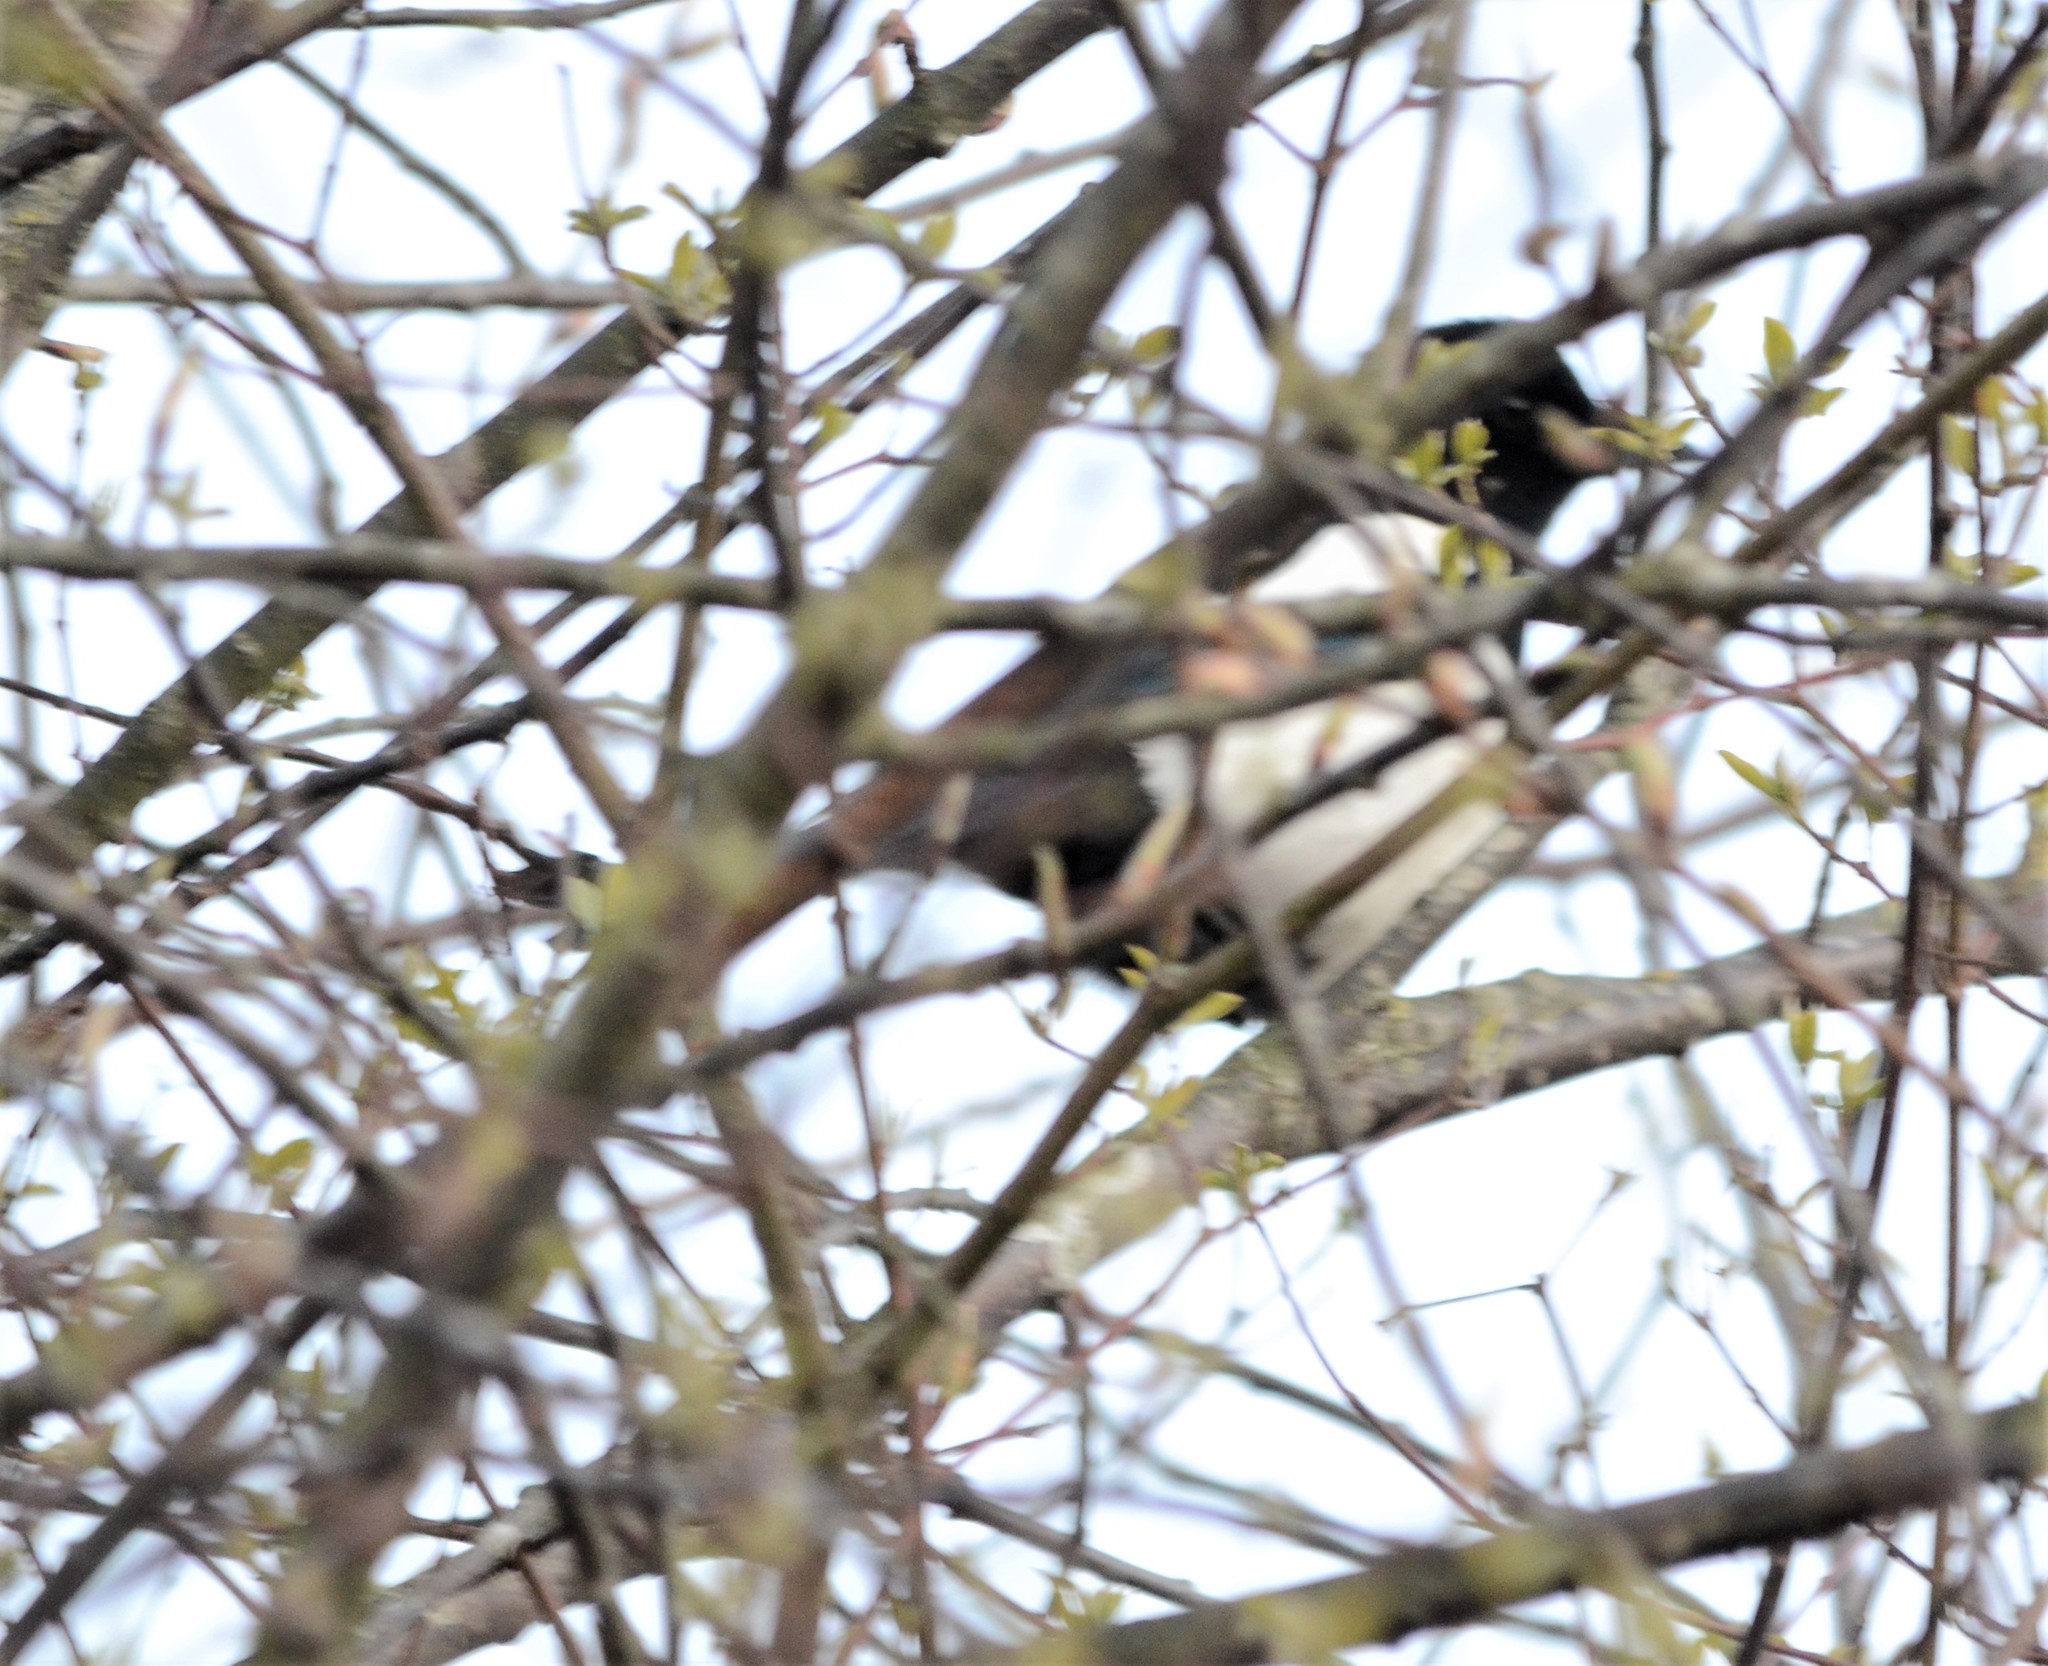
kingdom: Animalia
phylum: Chordata
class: Aves
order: Passeriformes
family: Corvidae
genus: Pica
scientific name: Pica pica
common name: Eurasian magpie
